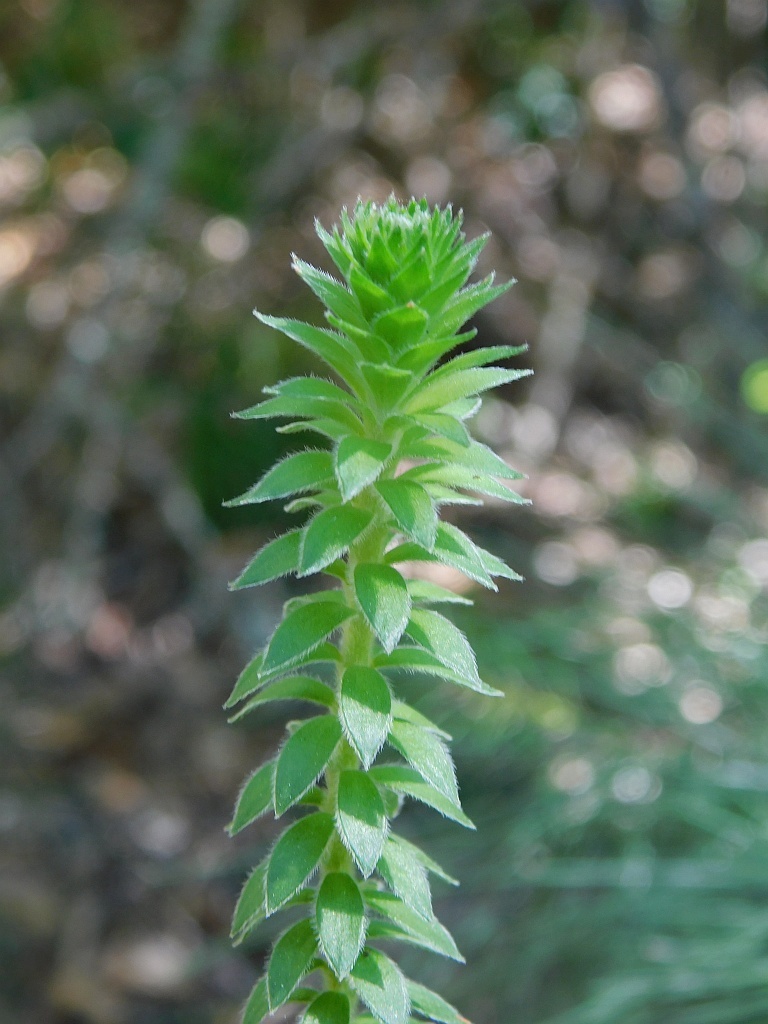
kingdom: Plantae
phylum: Tracheophyta
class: Magnoliopsida
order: Malvales
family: Thymelaeaceae
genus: Struthiola
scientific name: Struthiola hirsuta
